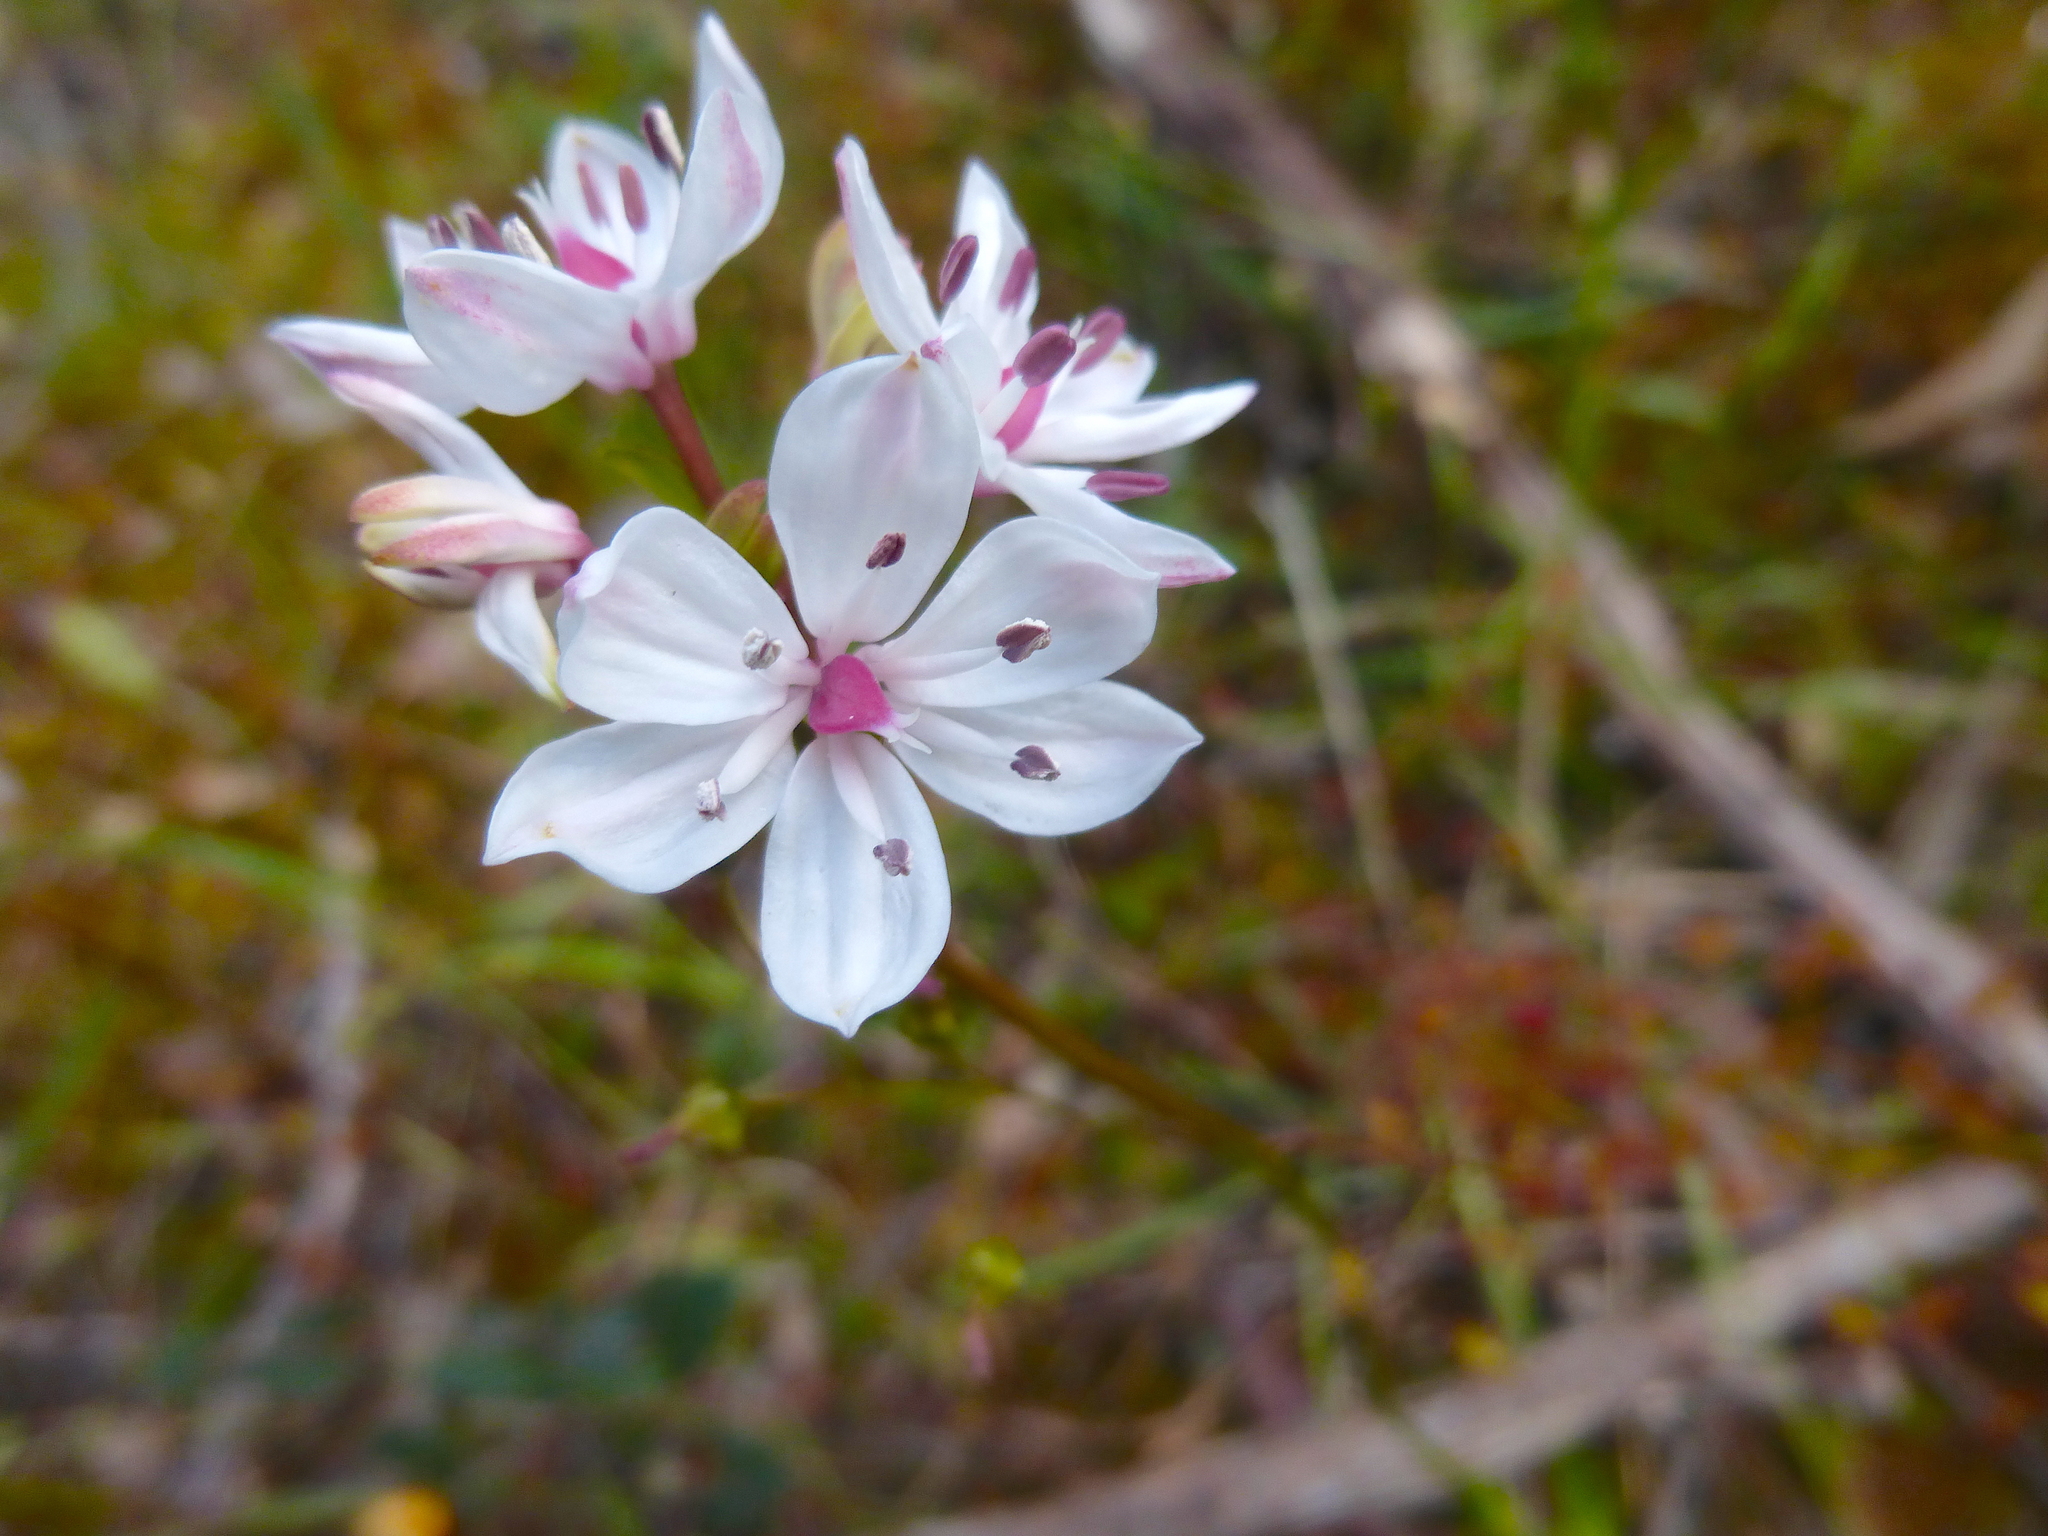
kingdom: Plantae
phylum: Tracheophyta
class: Liliopsida
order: Liliales
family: Colchicaceae
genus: Burchardia
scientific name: Burchardia umbellata
